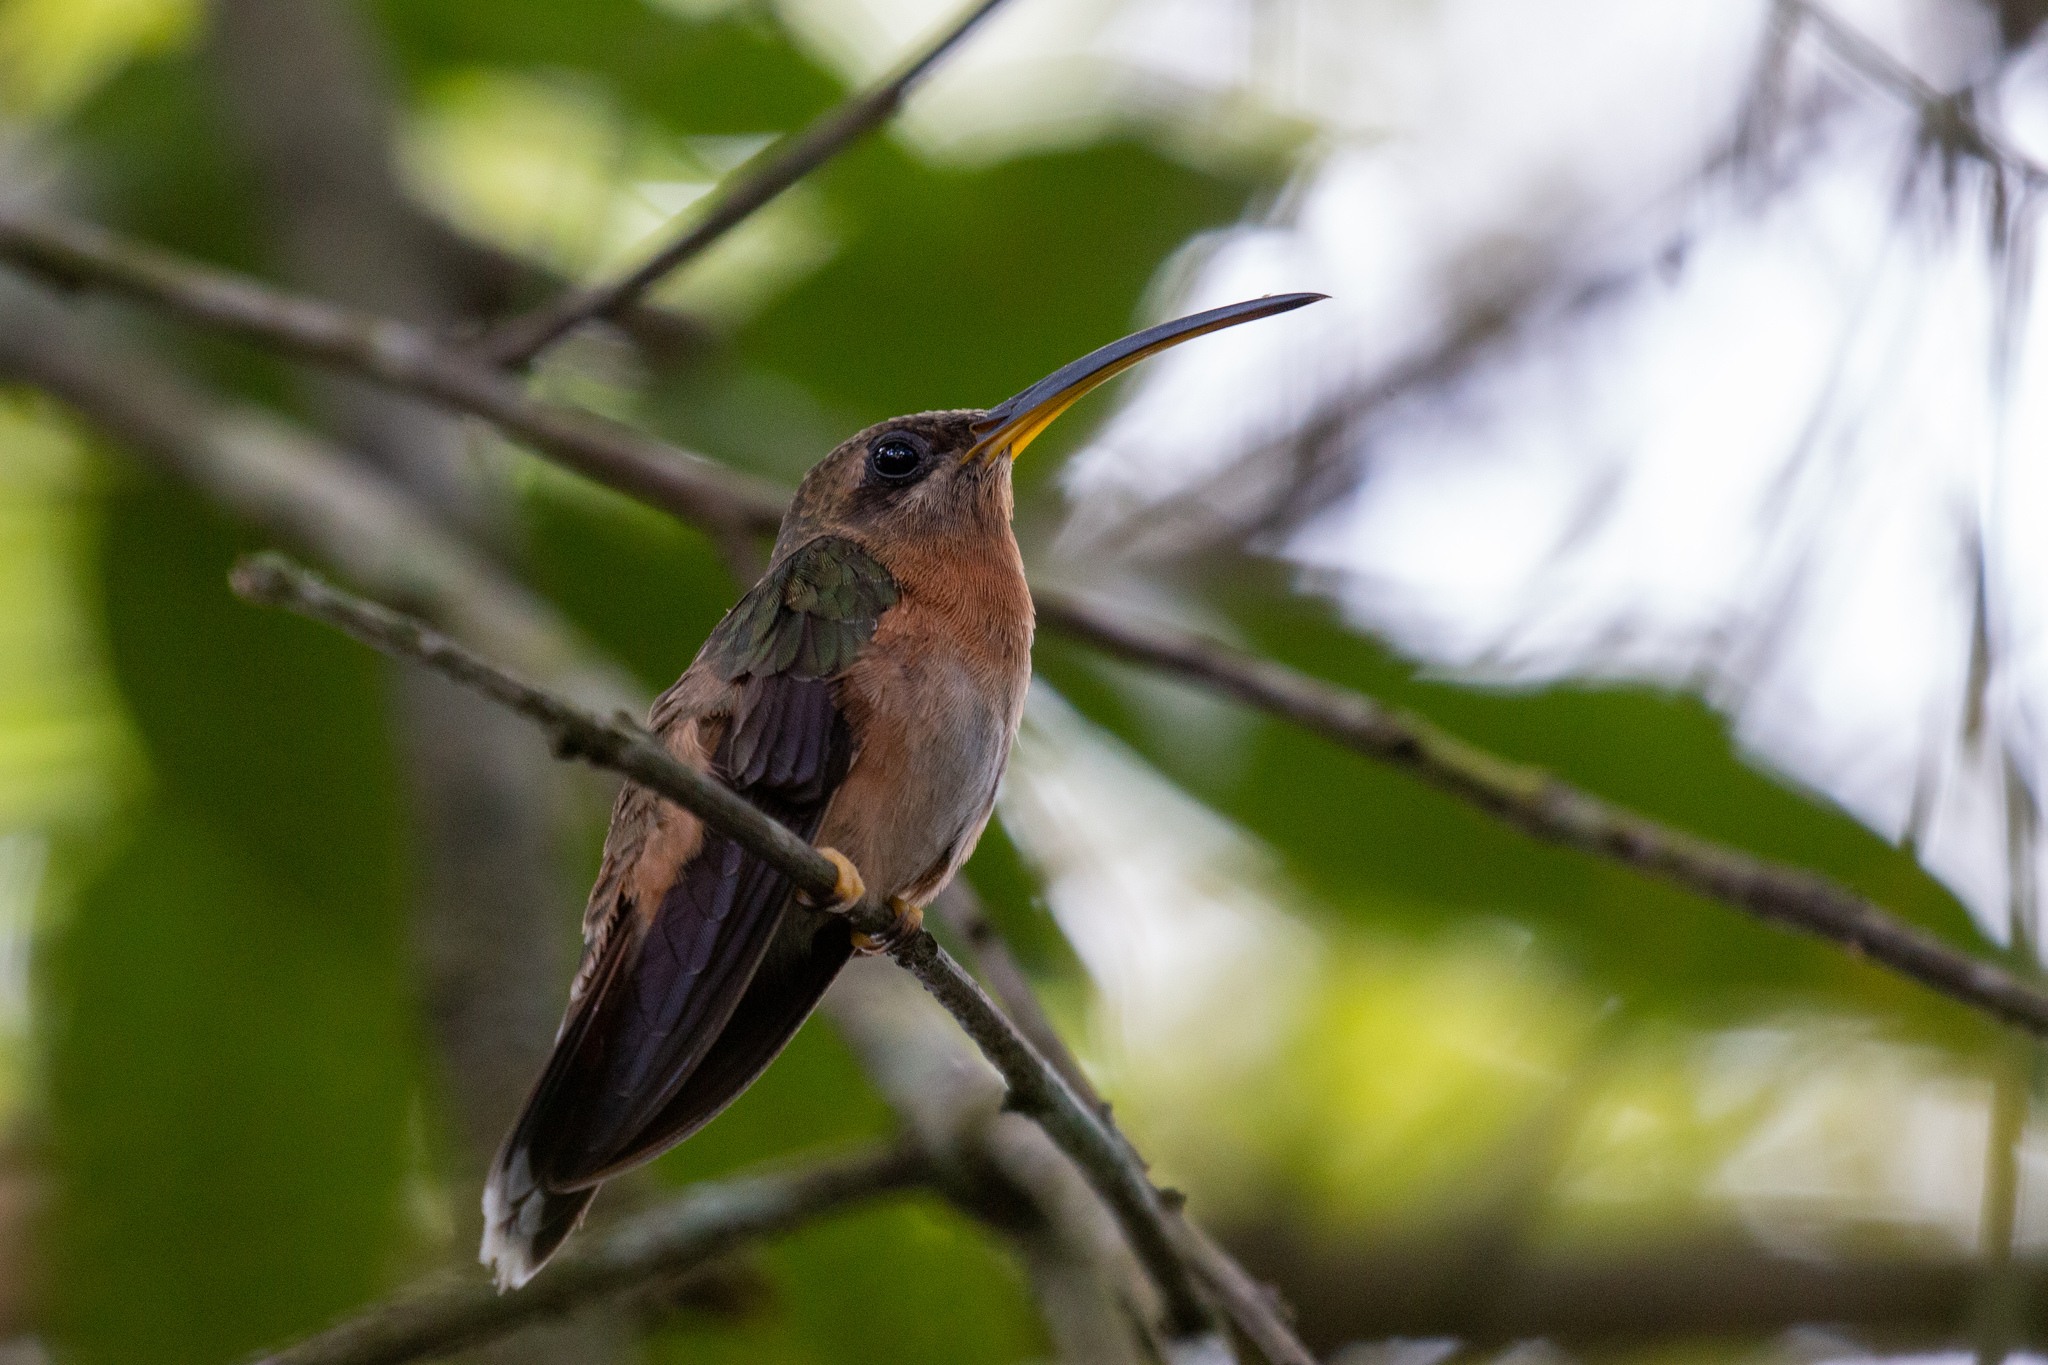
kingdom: Animalia
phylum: Chordata
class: Aves
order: Apodiformes
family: Trochilidae
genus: Glaucis
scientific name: Glaucis hirsutus
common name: Rufous-breasted hermit
